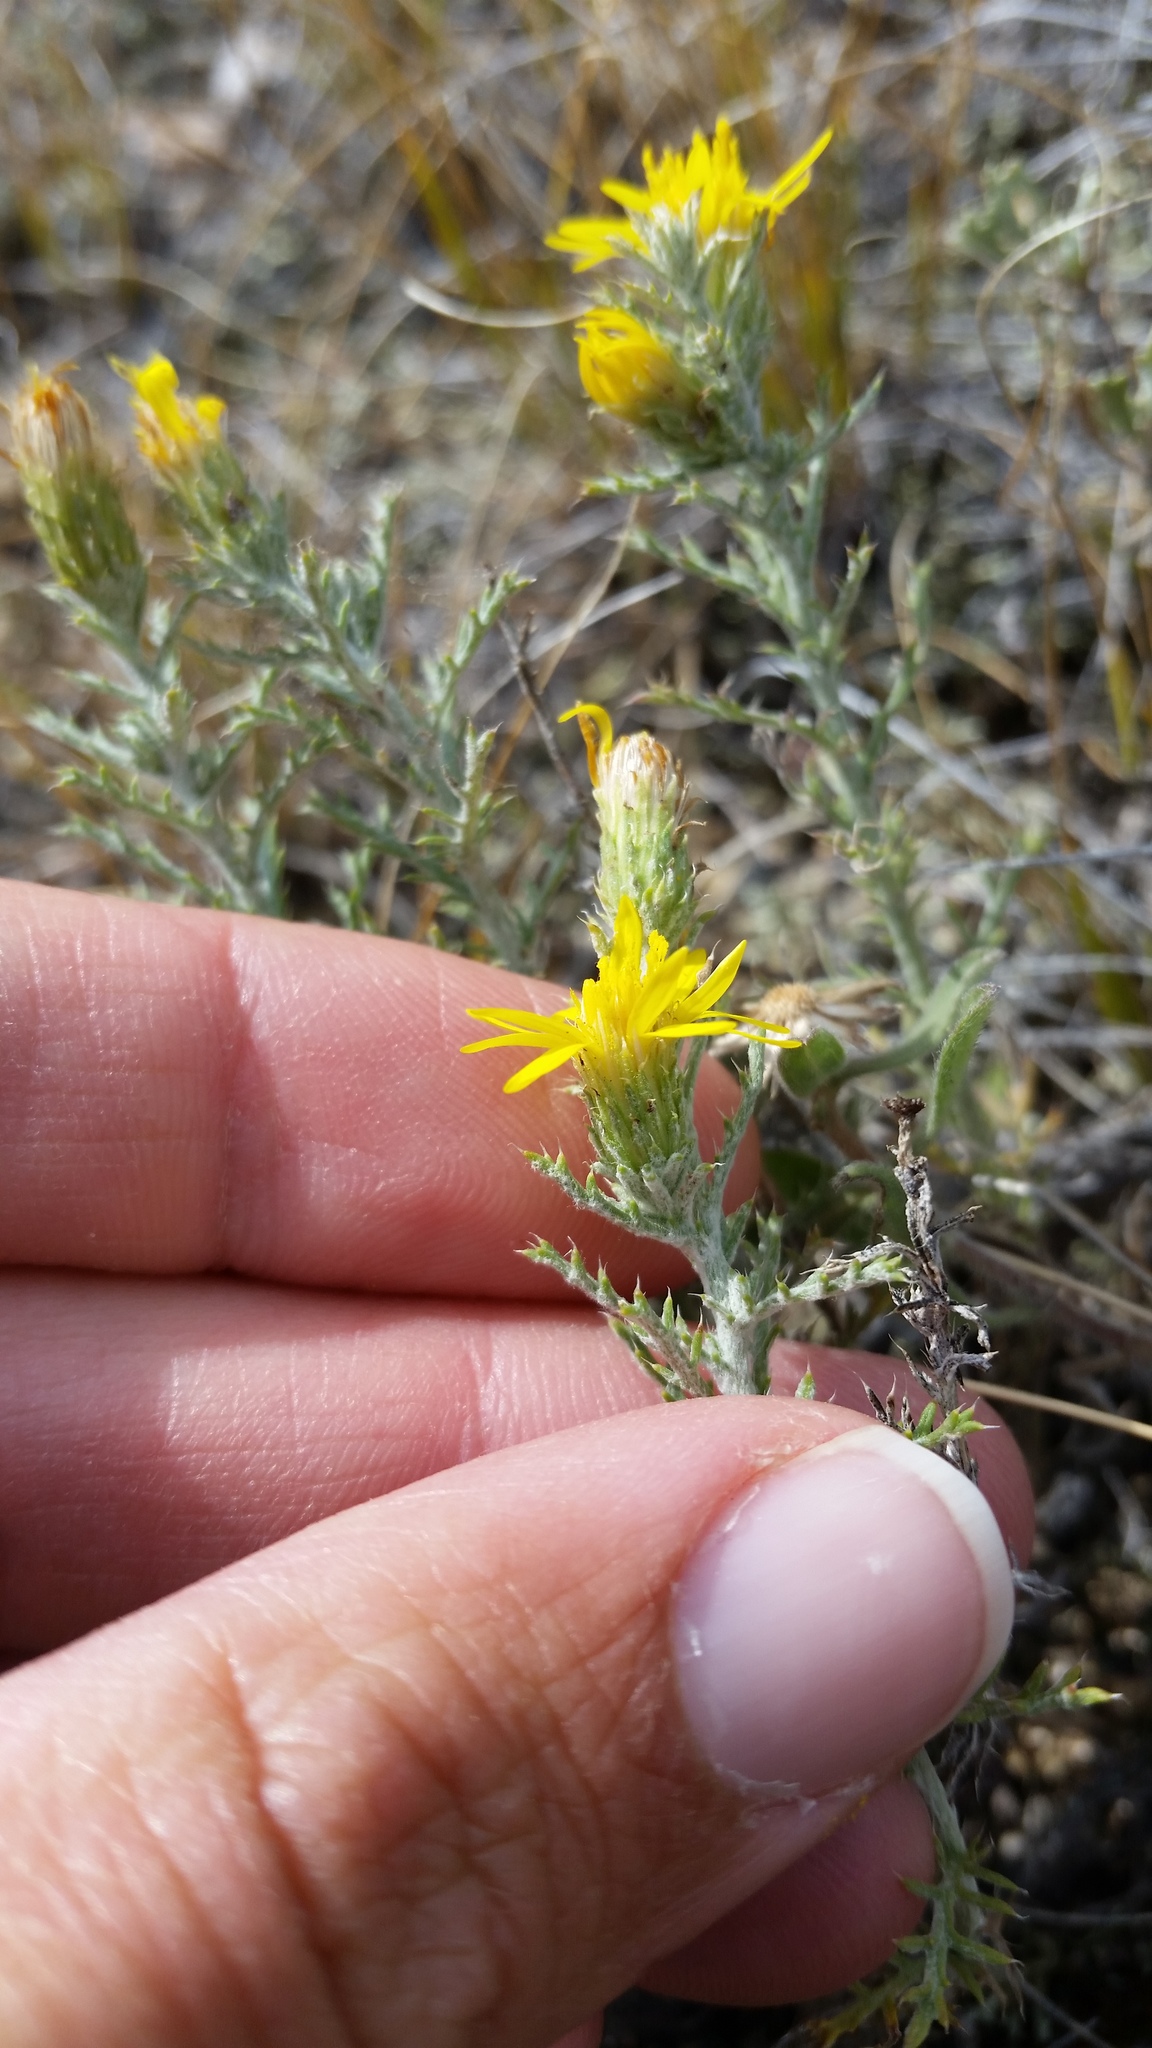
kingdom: Plantae
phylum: Tracheophyta
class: Magnoliopsida
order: Asterales
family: Asteraceae
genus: Xanthisma
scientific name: Xanthisma spinulosum
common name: Spiny goldenweed
